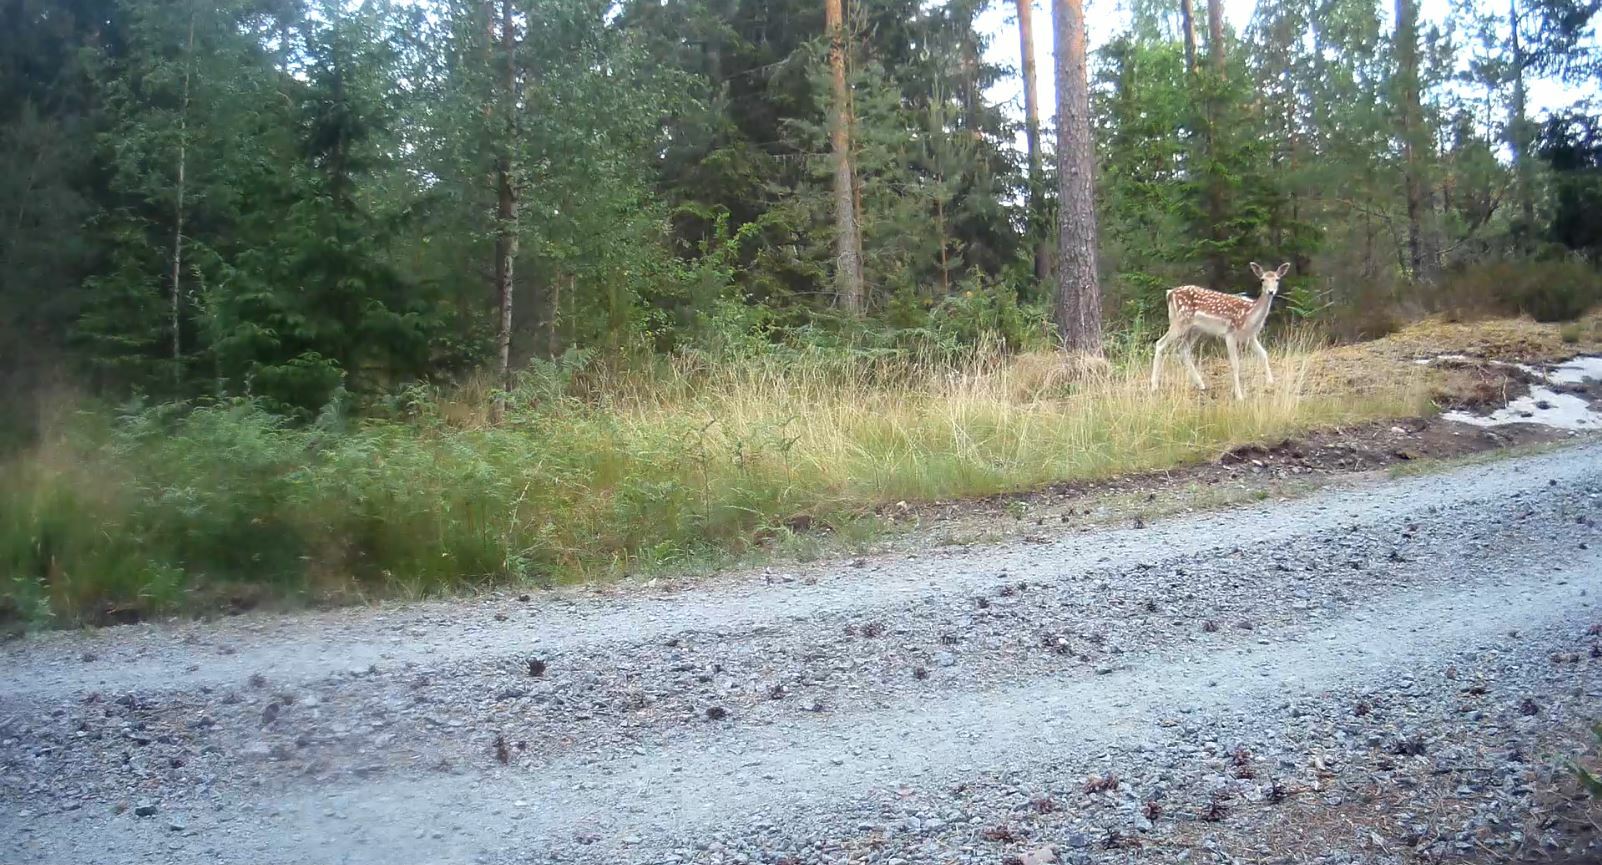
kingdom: Animalia
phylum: Chordata
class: Mammalia
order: Artiodactyla
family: Cervidae
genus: Dama
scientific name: Dama dama
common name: Fallow deer
